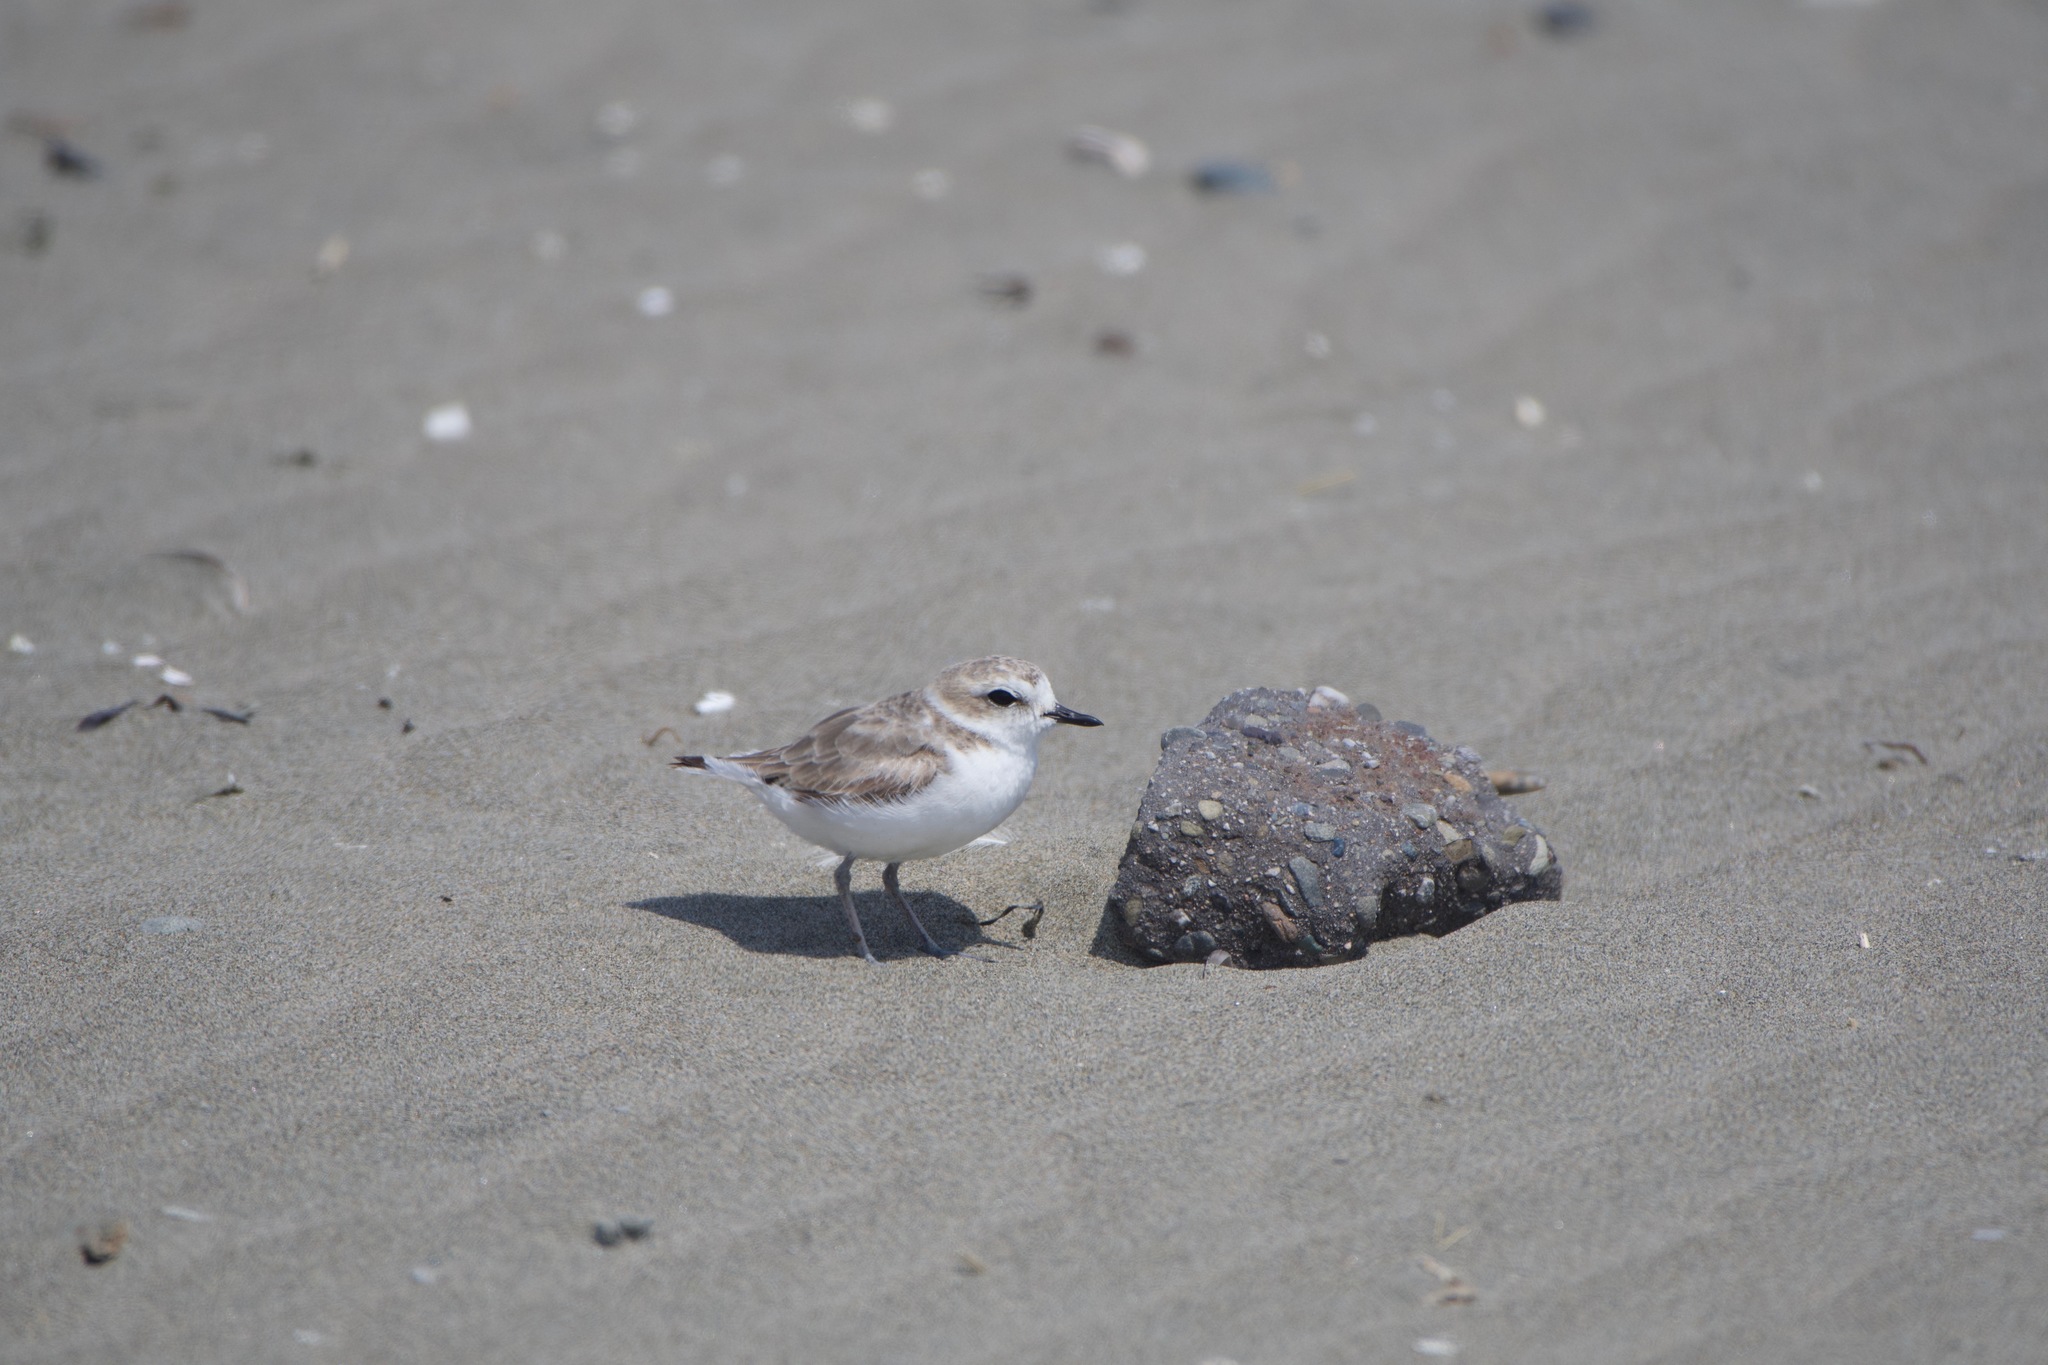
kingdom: Animalia
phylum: Chordata
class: Aves
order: Charadriiformes
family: Charadriidae
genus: Anarhynchus
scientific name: Anarhynchus
